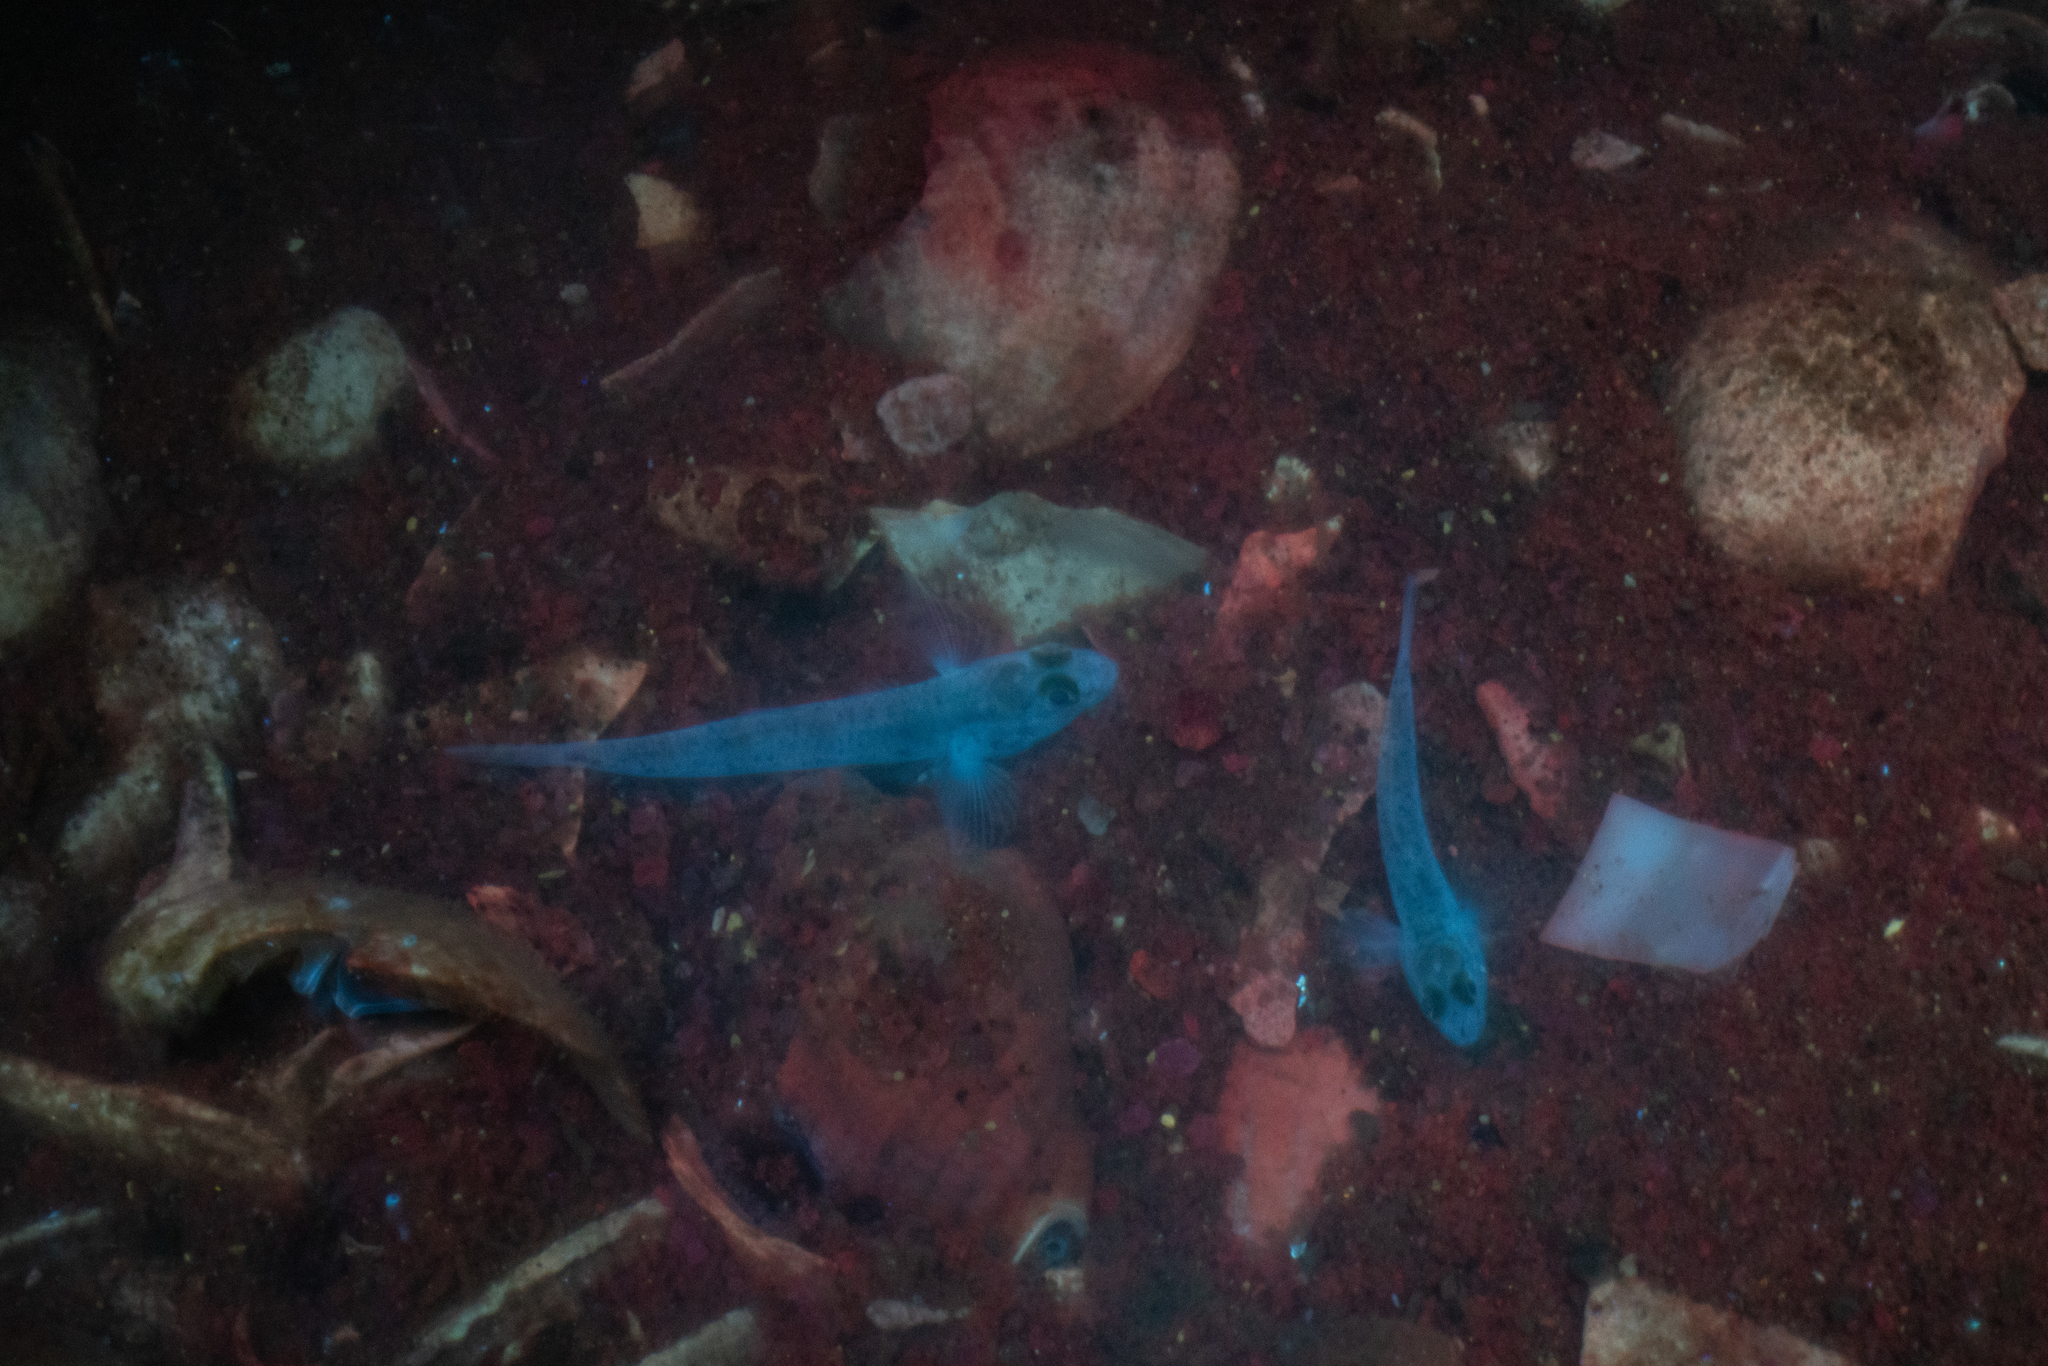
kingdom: Animalia
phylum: Chordata
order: Perciformes
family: Gobiidae
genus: Favonigobius
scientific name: Favonigobius exquisitus
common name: Exquisite sand-goby
